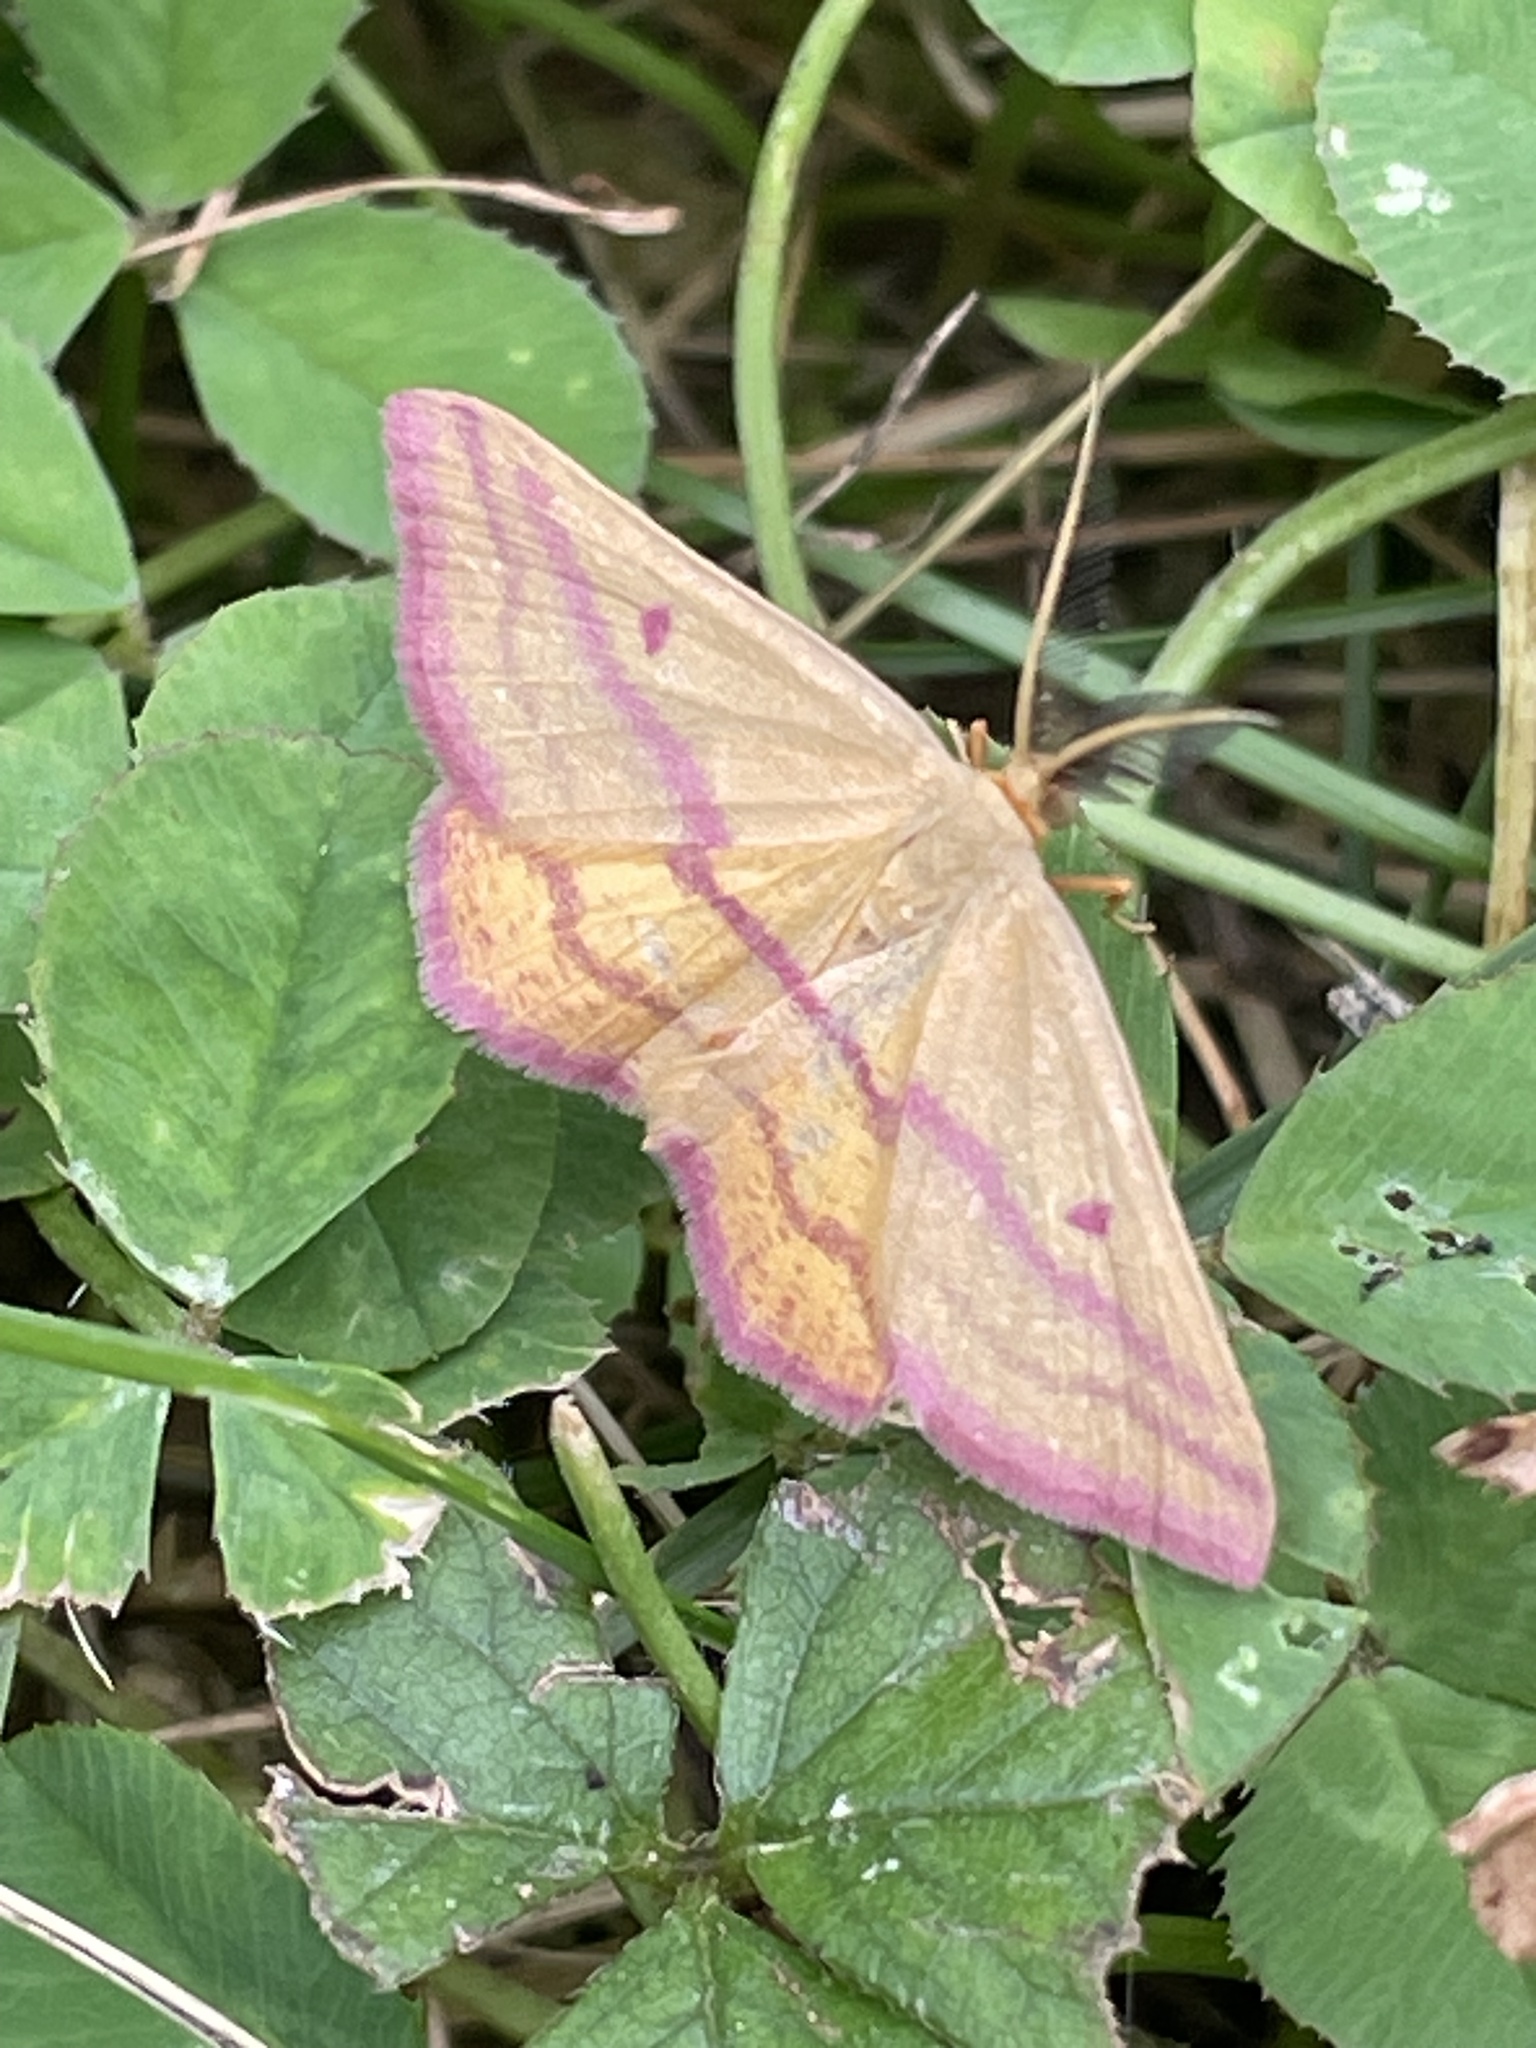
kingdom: Animalia
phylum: Arthropoda
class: Insecta
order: Lepidoptera
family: Geometridae
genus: Haematopis
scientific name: Haematopis grataria
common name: Chickweed geometer
